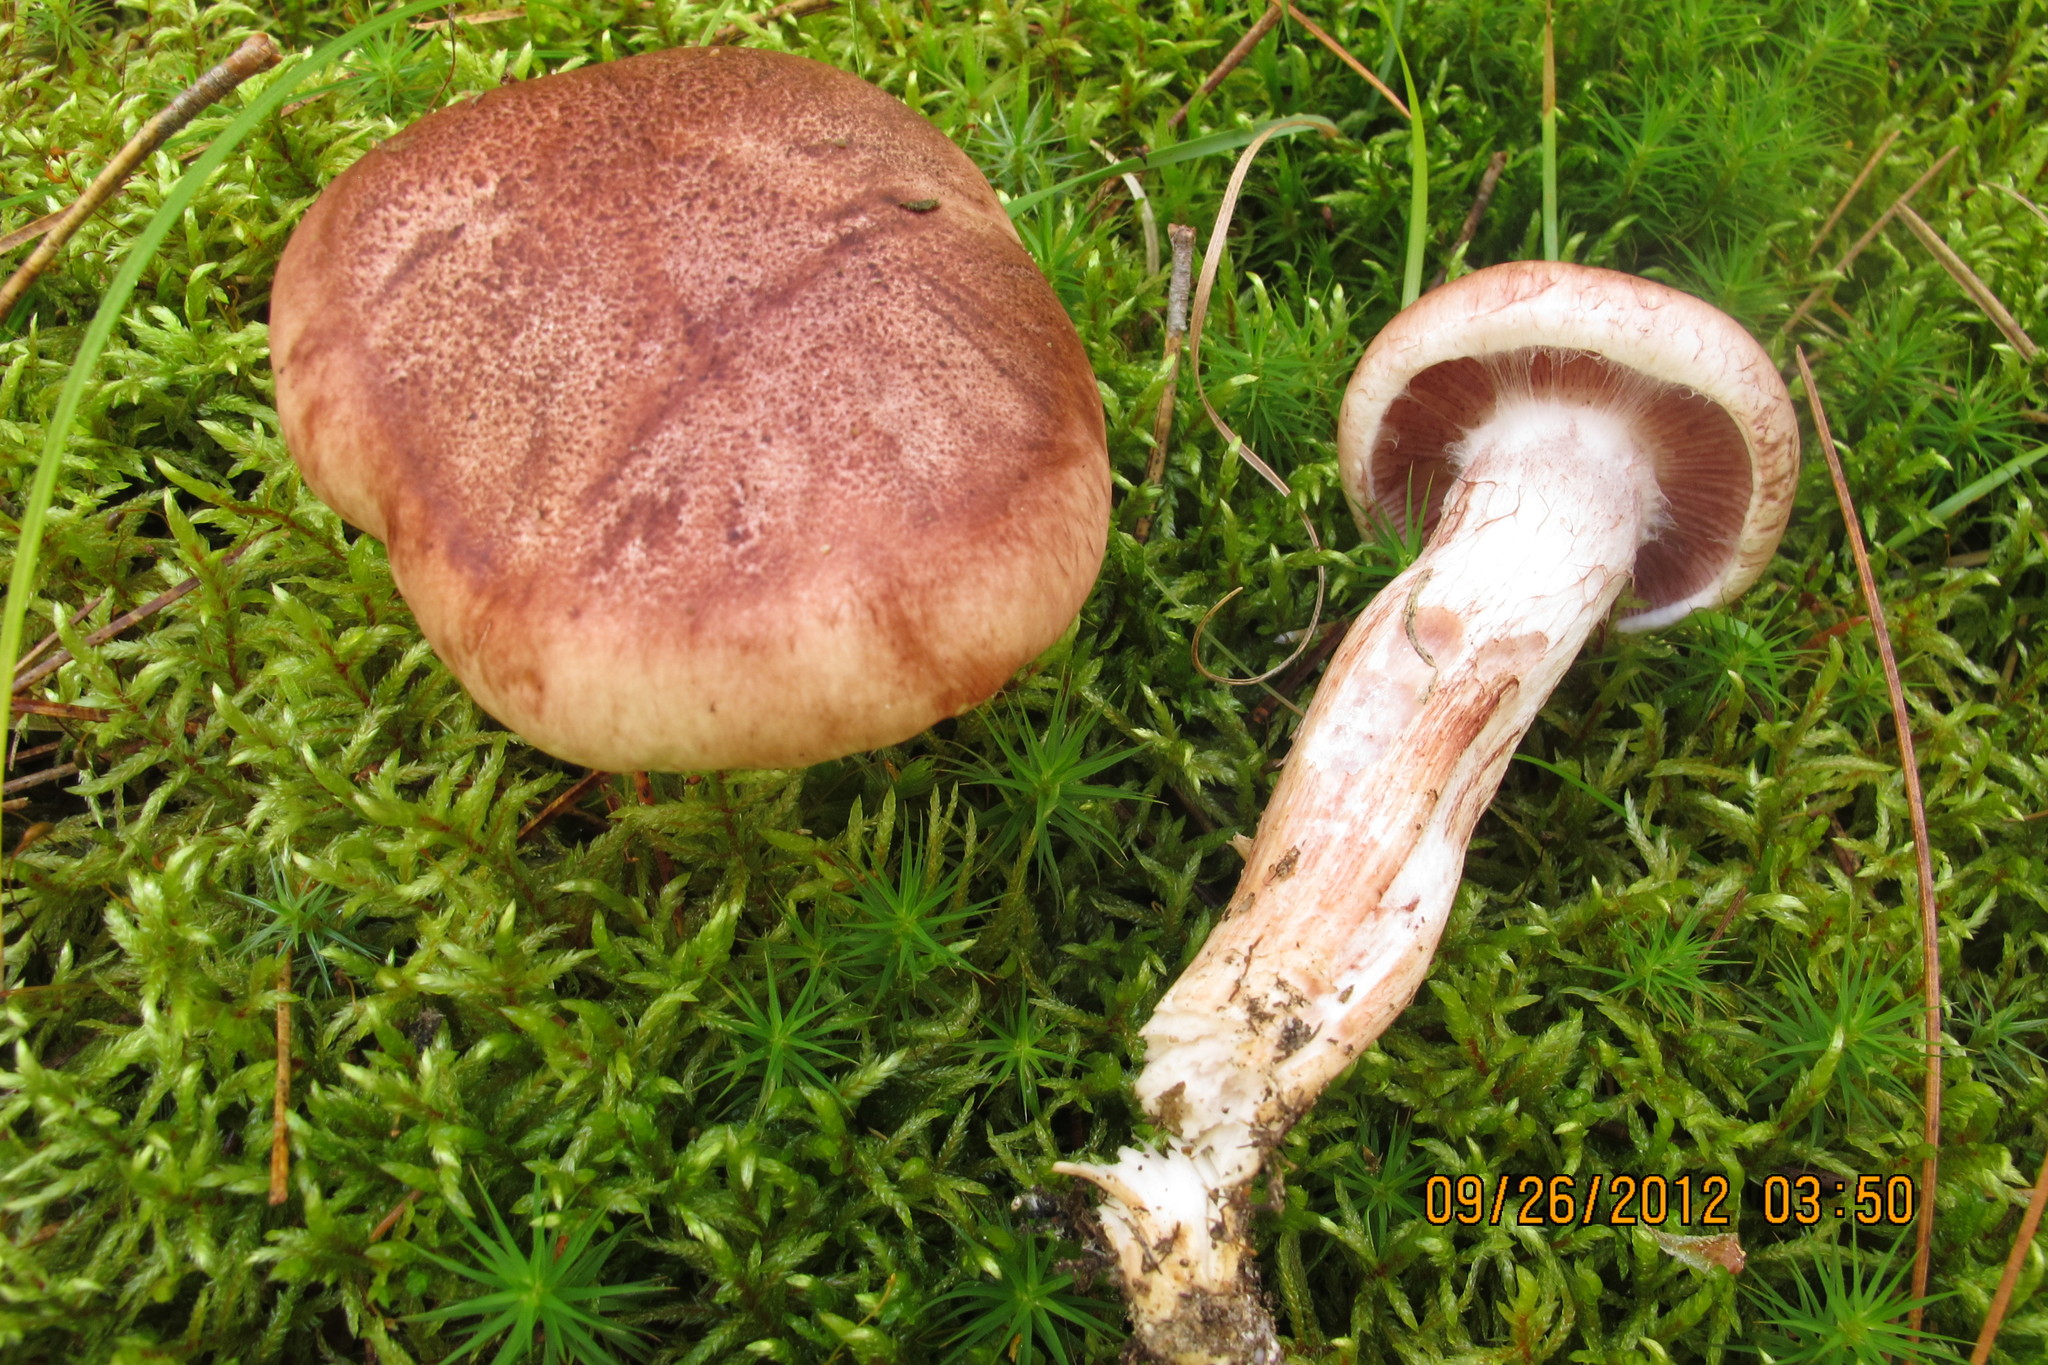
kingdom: Fungi
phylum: Basidiomycota
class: Agaricomycetes
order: Agaricales
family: Hygrophoraceae
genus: Hygrophorus
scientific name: Hygrophorus purpurascens
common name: Veiled purple waxcap
